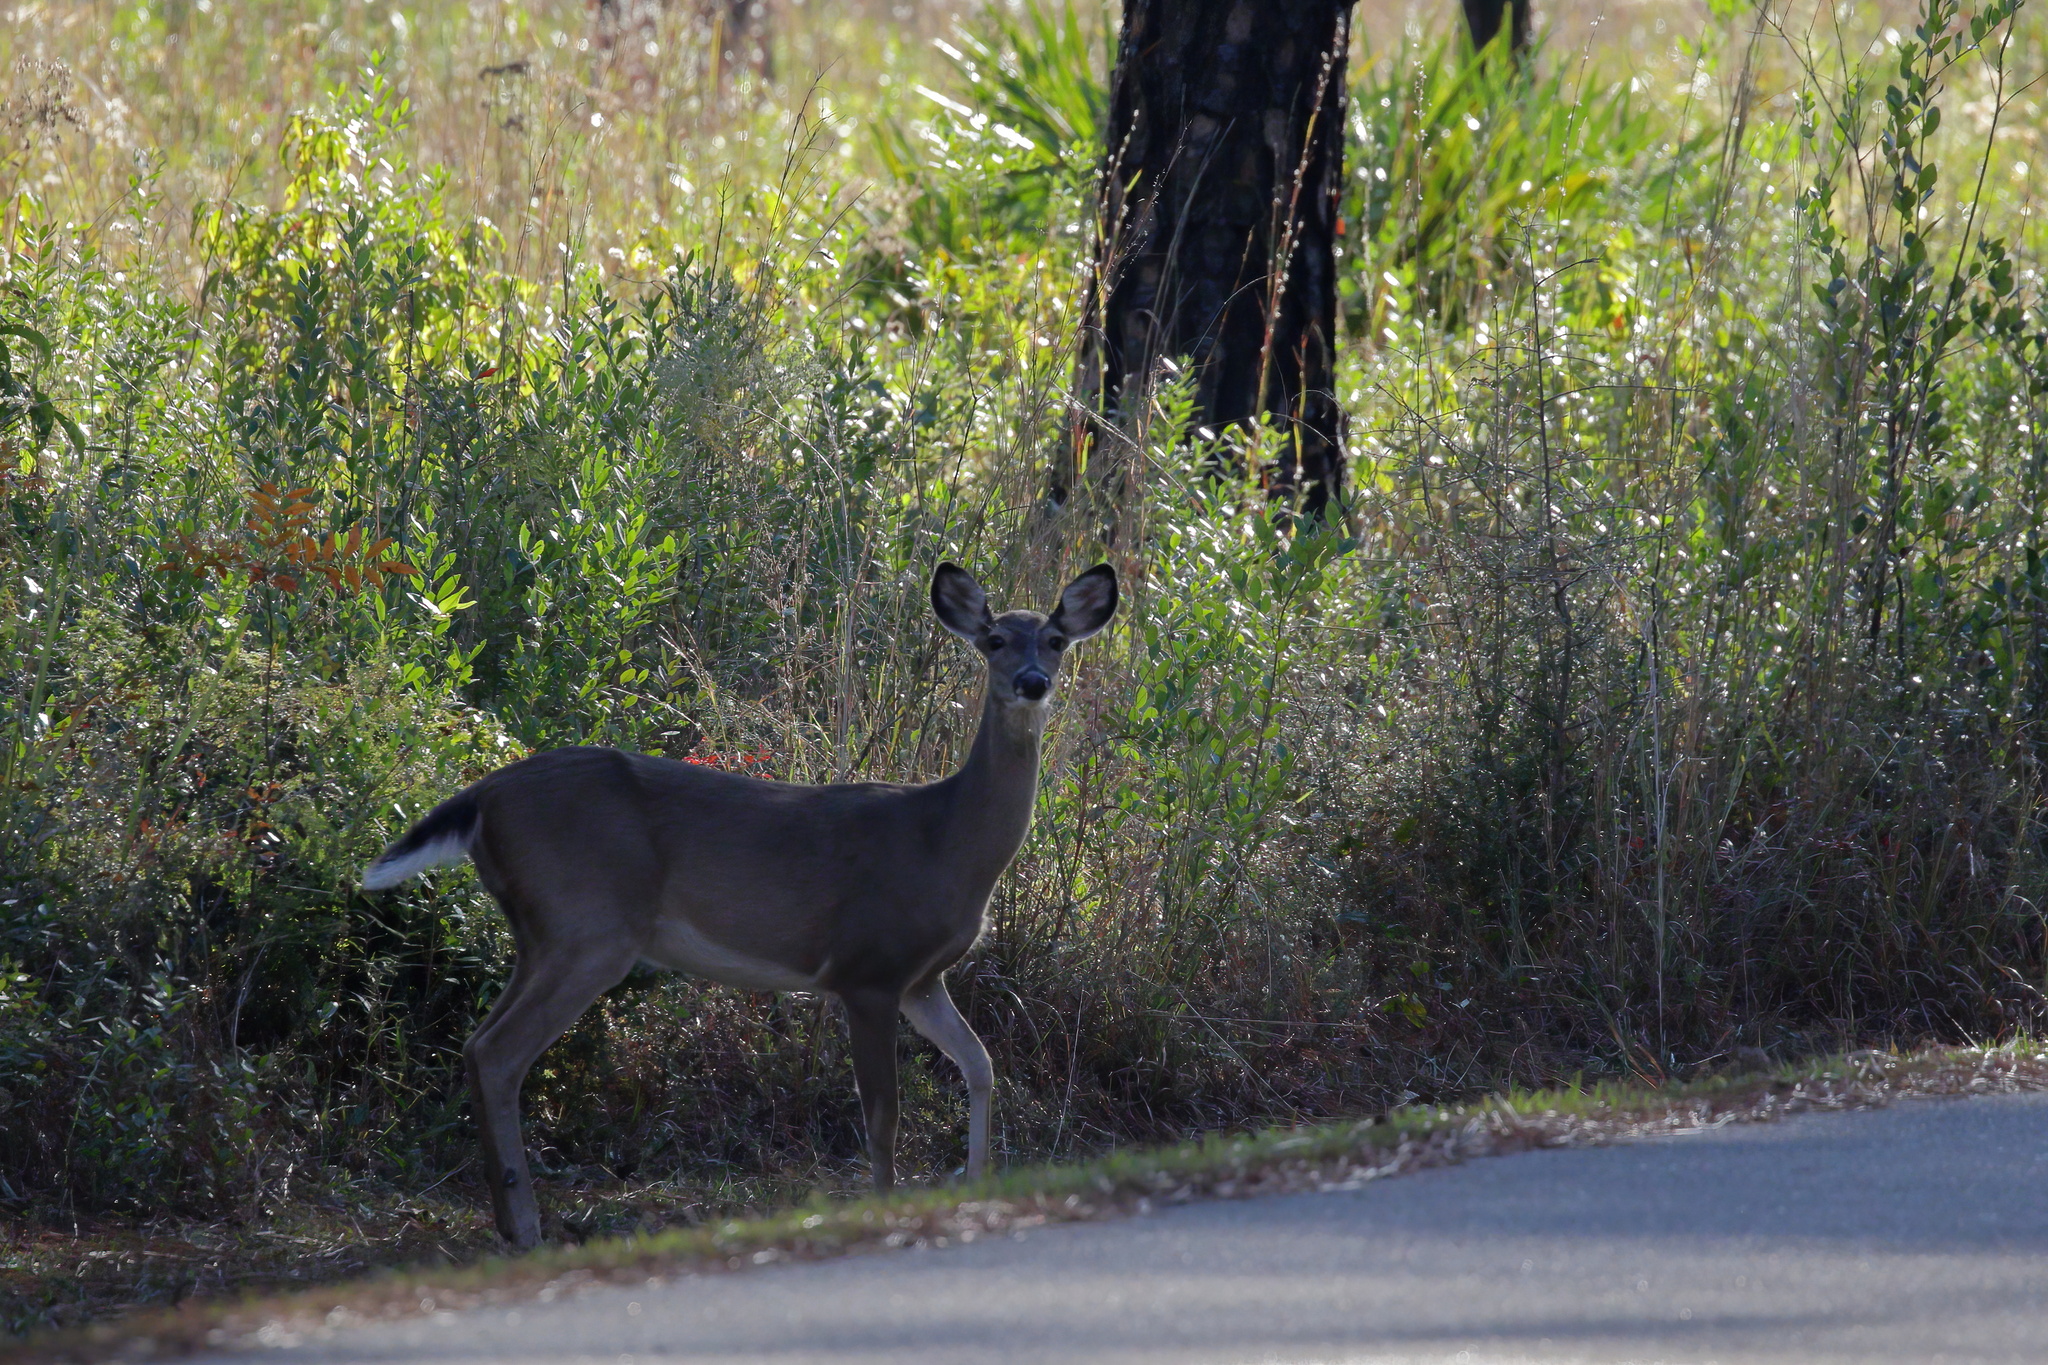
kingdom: Animalia
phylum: Chordata
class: Mammalia
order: Artiodactyla
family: Cervidae
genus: Odocoileus
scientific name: Odocoileus virginianus
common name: White-tailed deer
